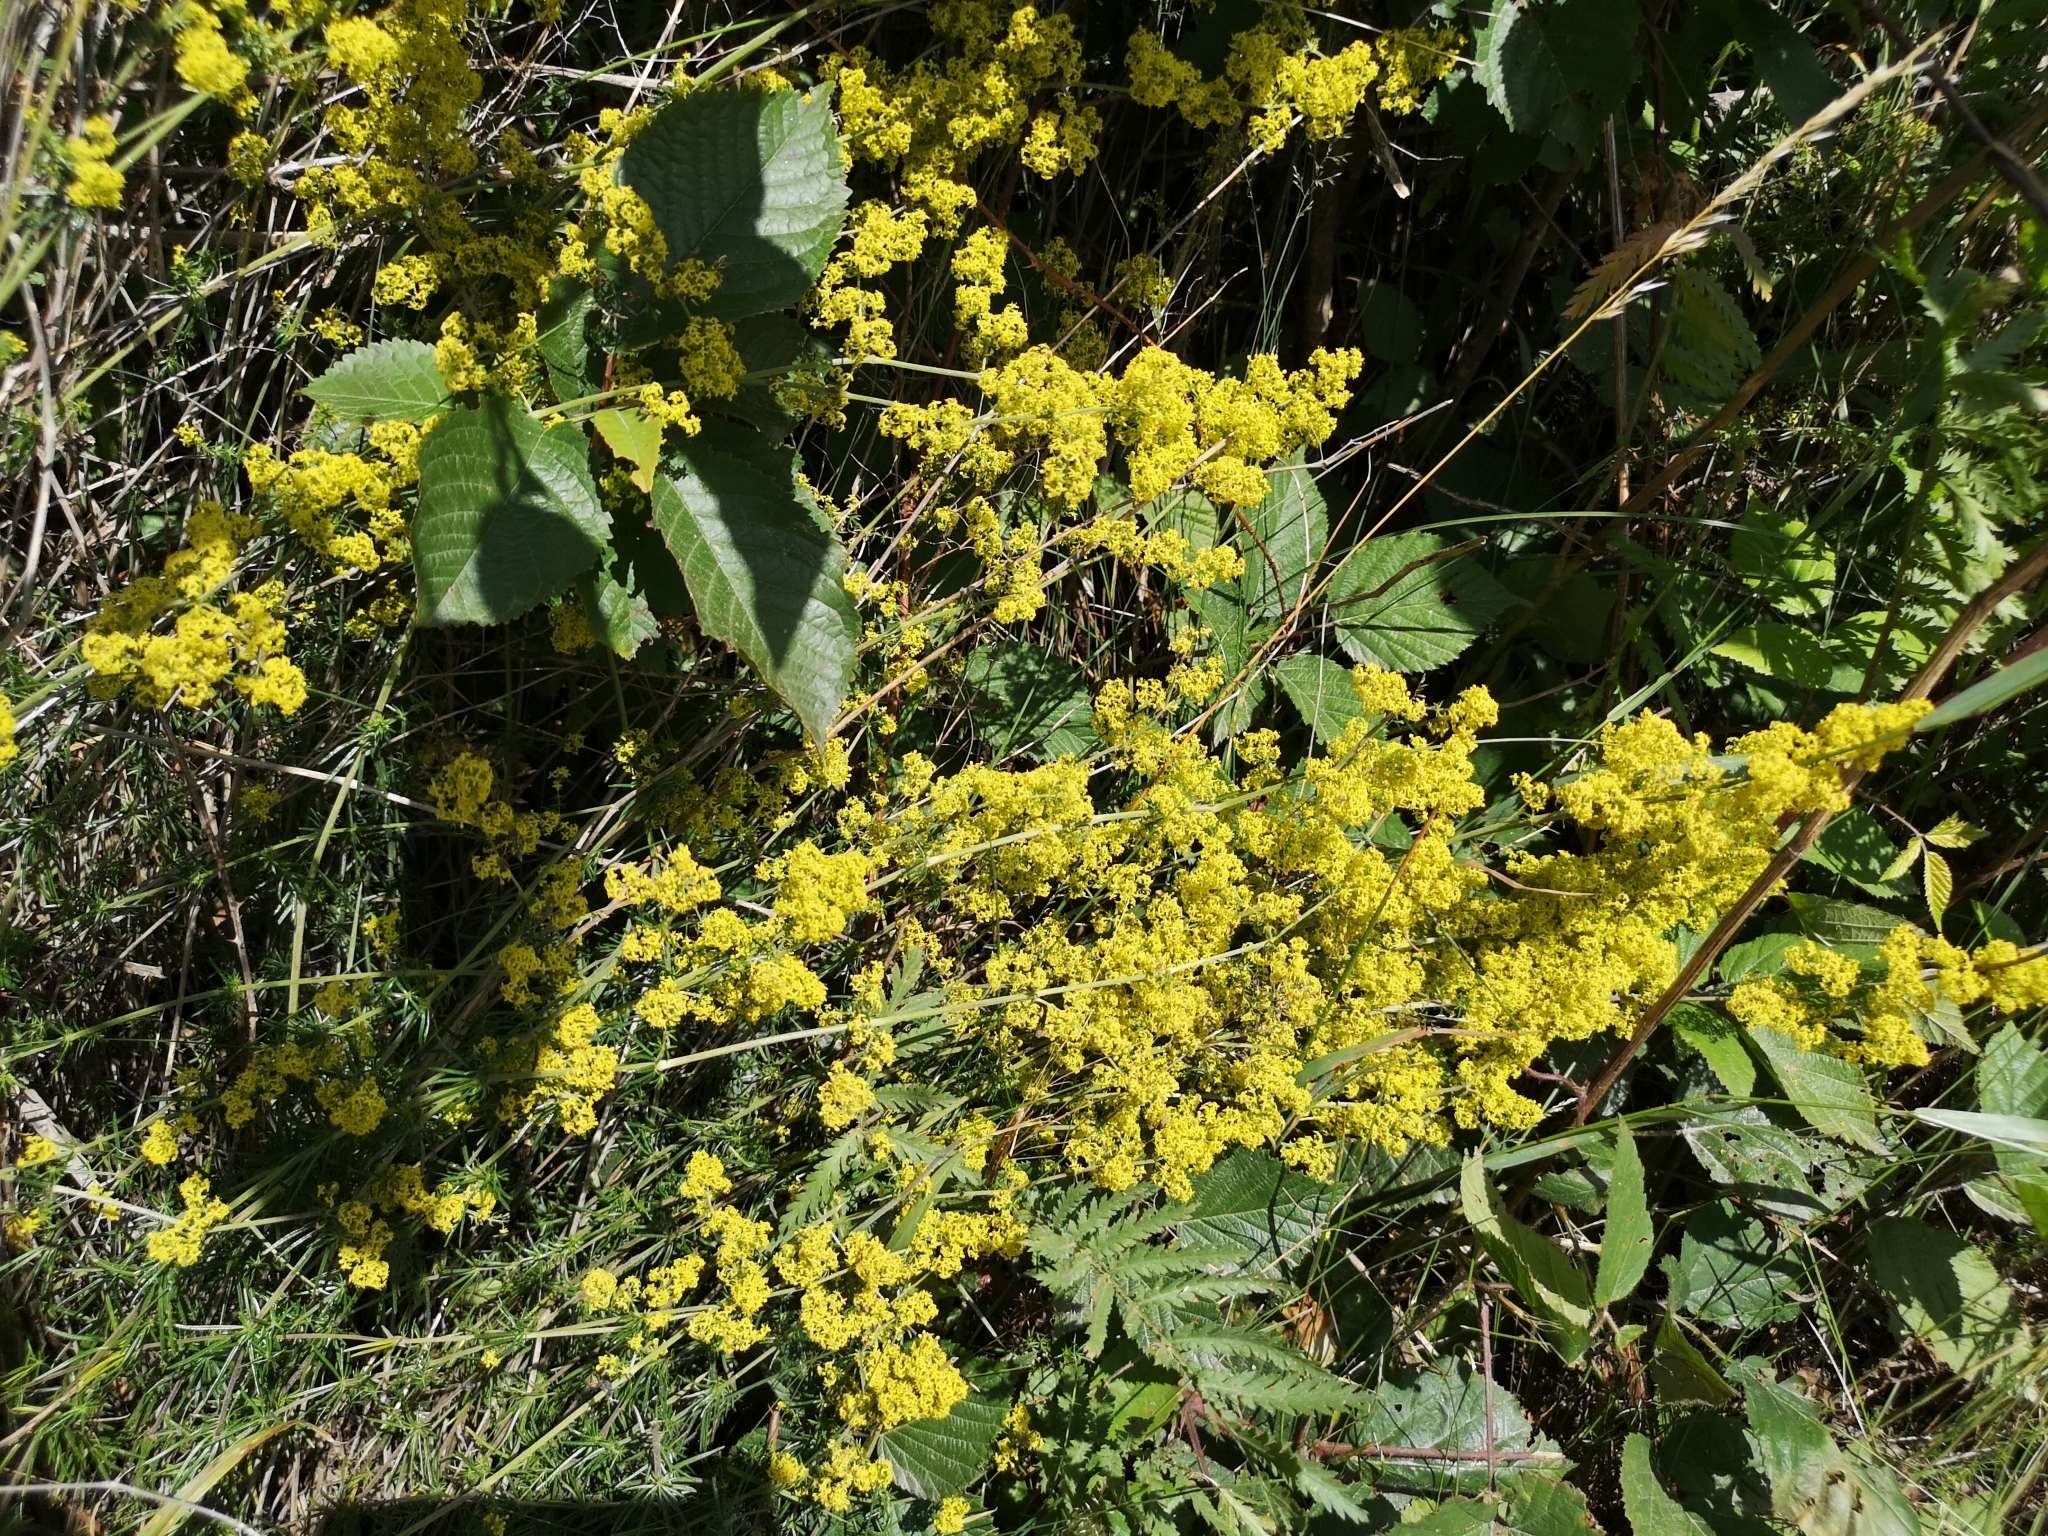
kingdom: Plantae
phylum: Tracheophyta
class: Magnoliopsida
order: Gentianales
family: Rubiaceae
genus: Galium
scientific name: Galium verum
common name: Lady's bedstraw
